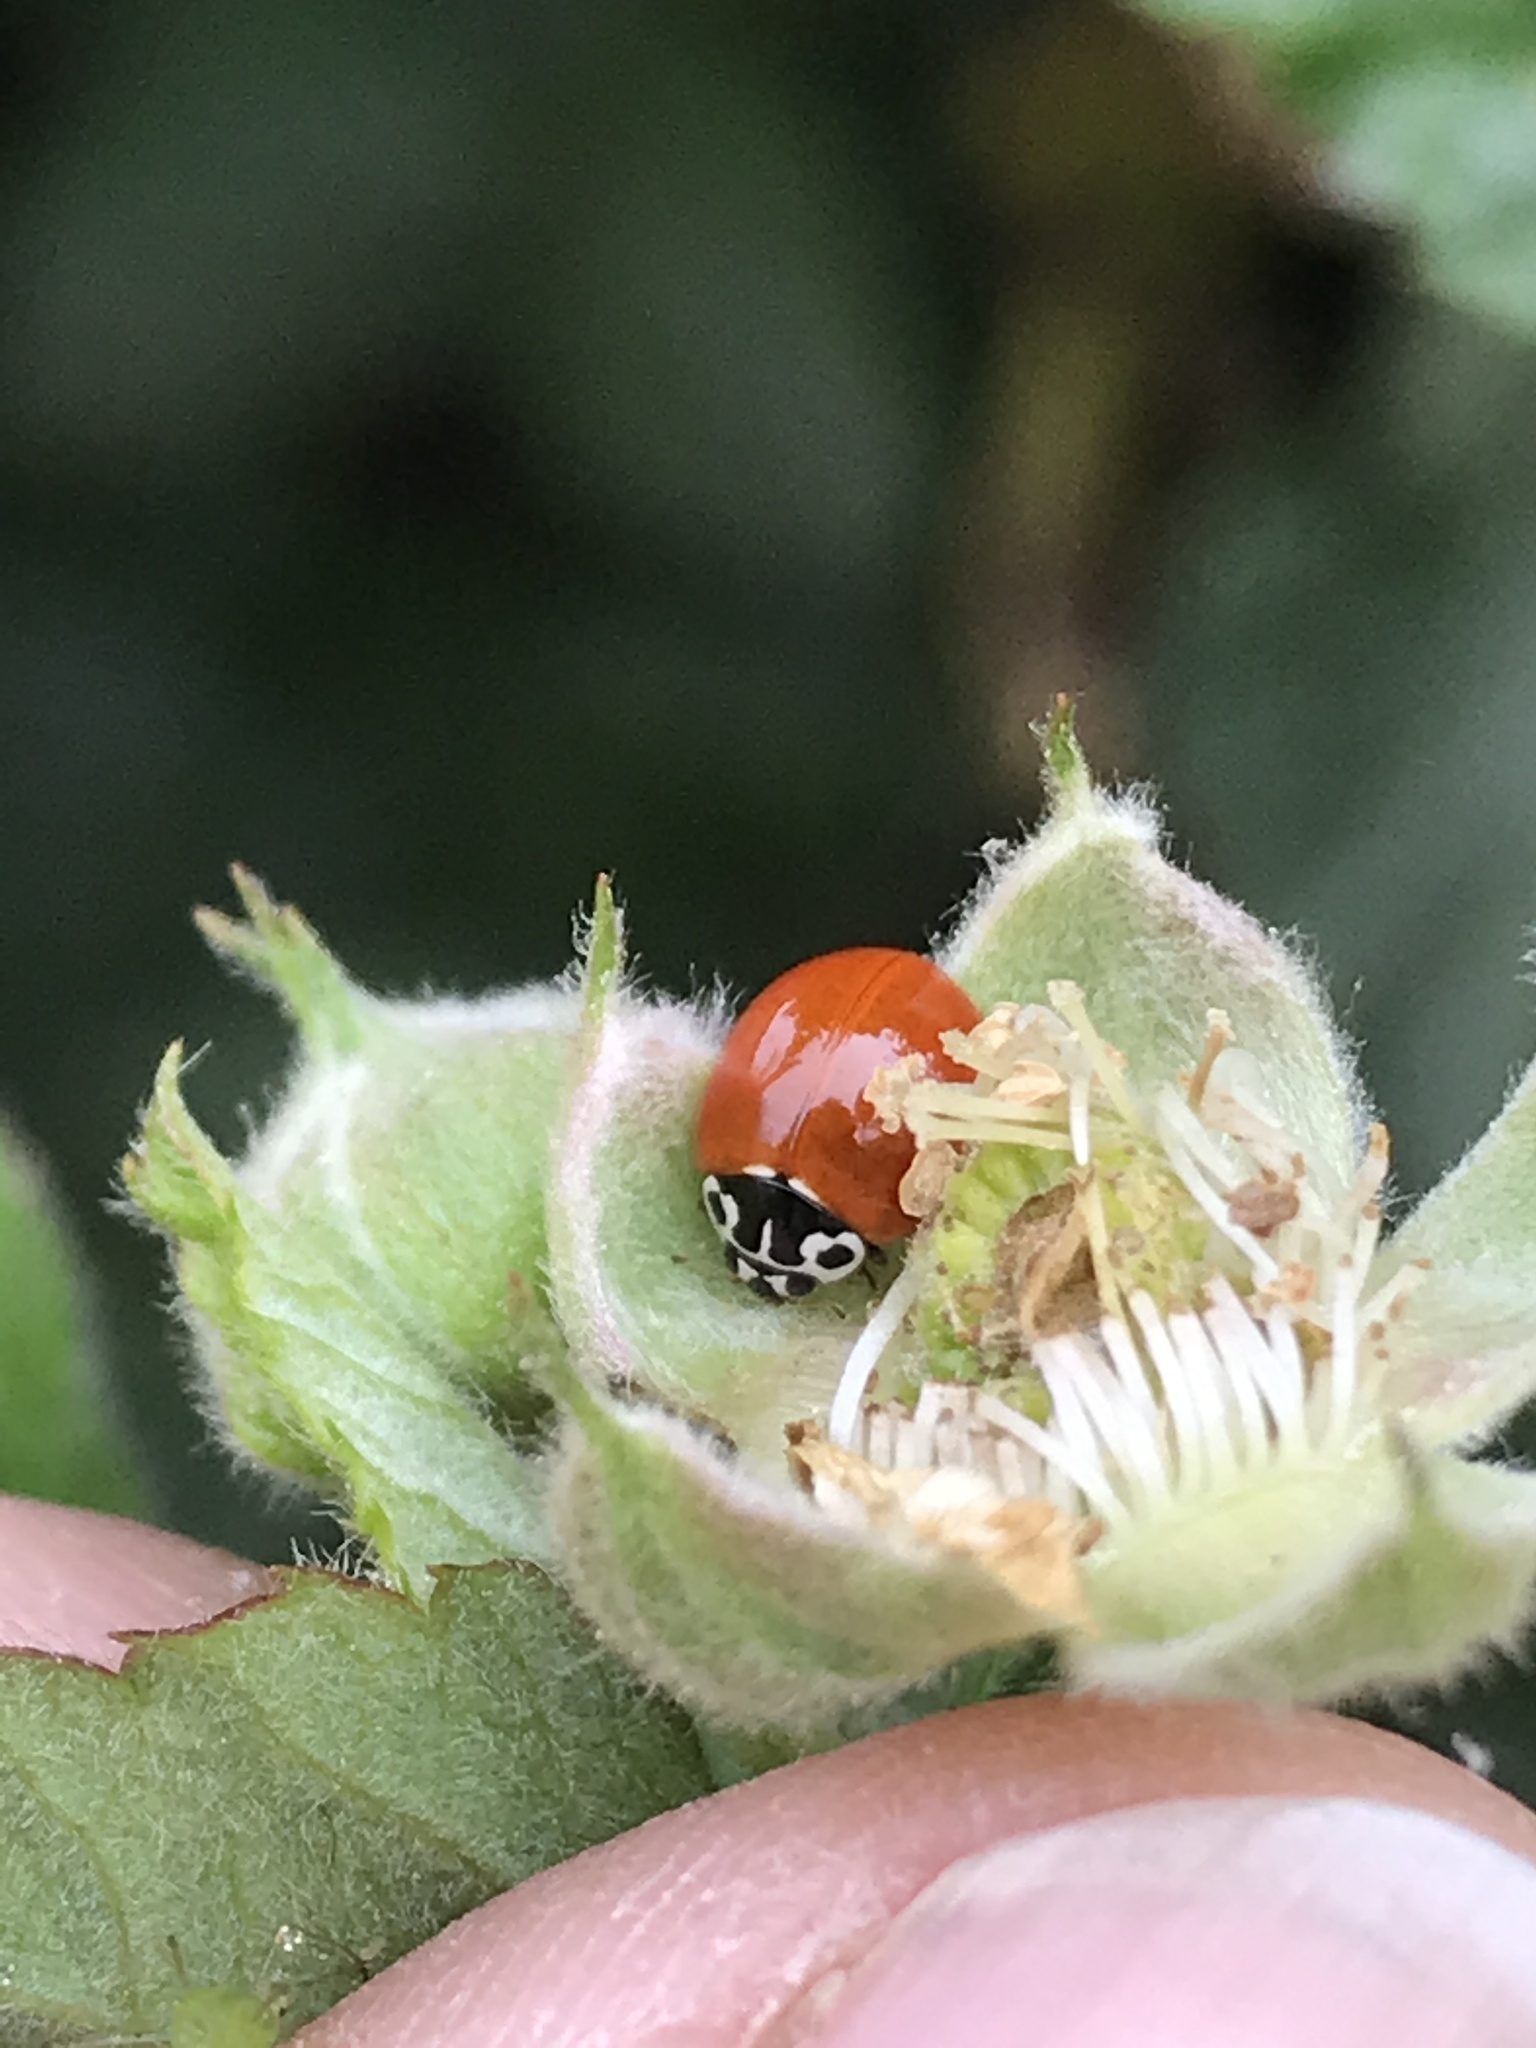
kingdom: Animalia
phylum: Arthropoda
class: Insecta
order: Coleoptera
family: Coccinellidae
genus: Cycloneda
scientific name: Cycloneda polita
